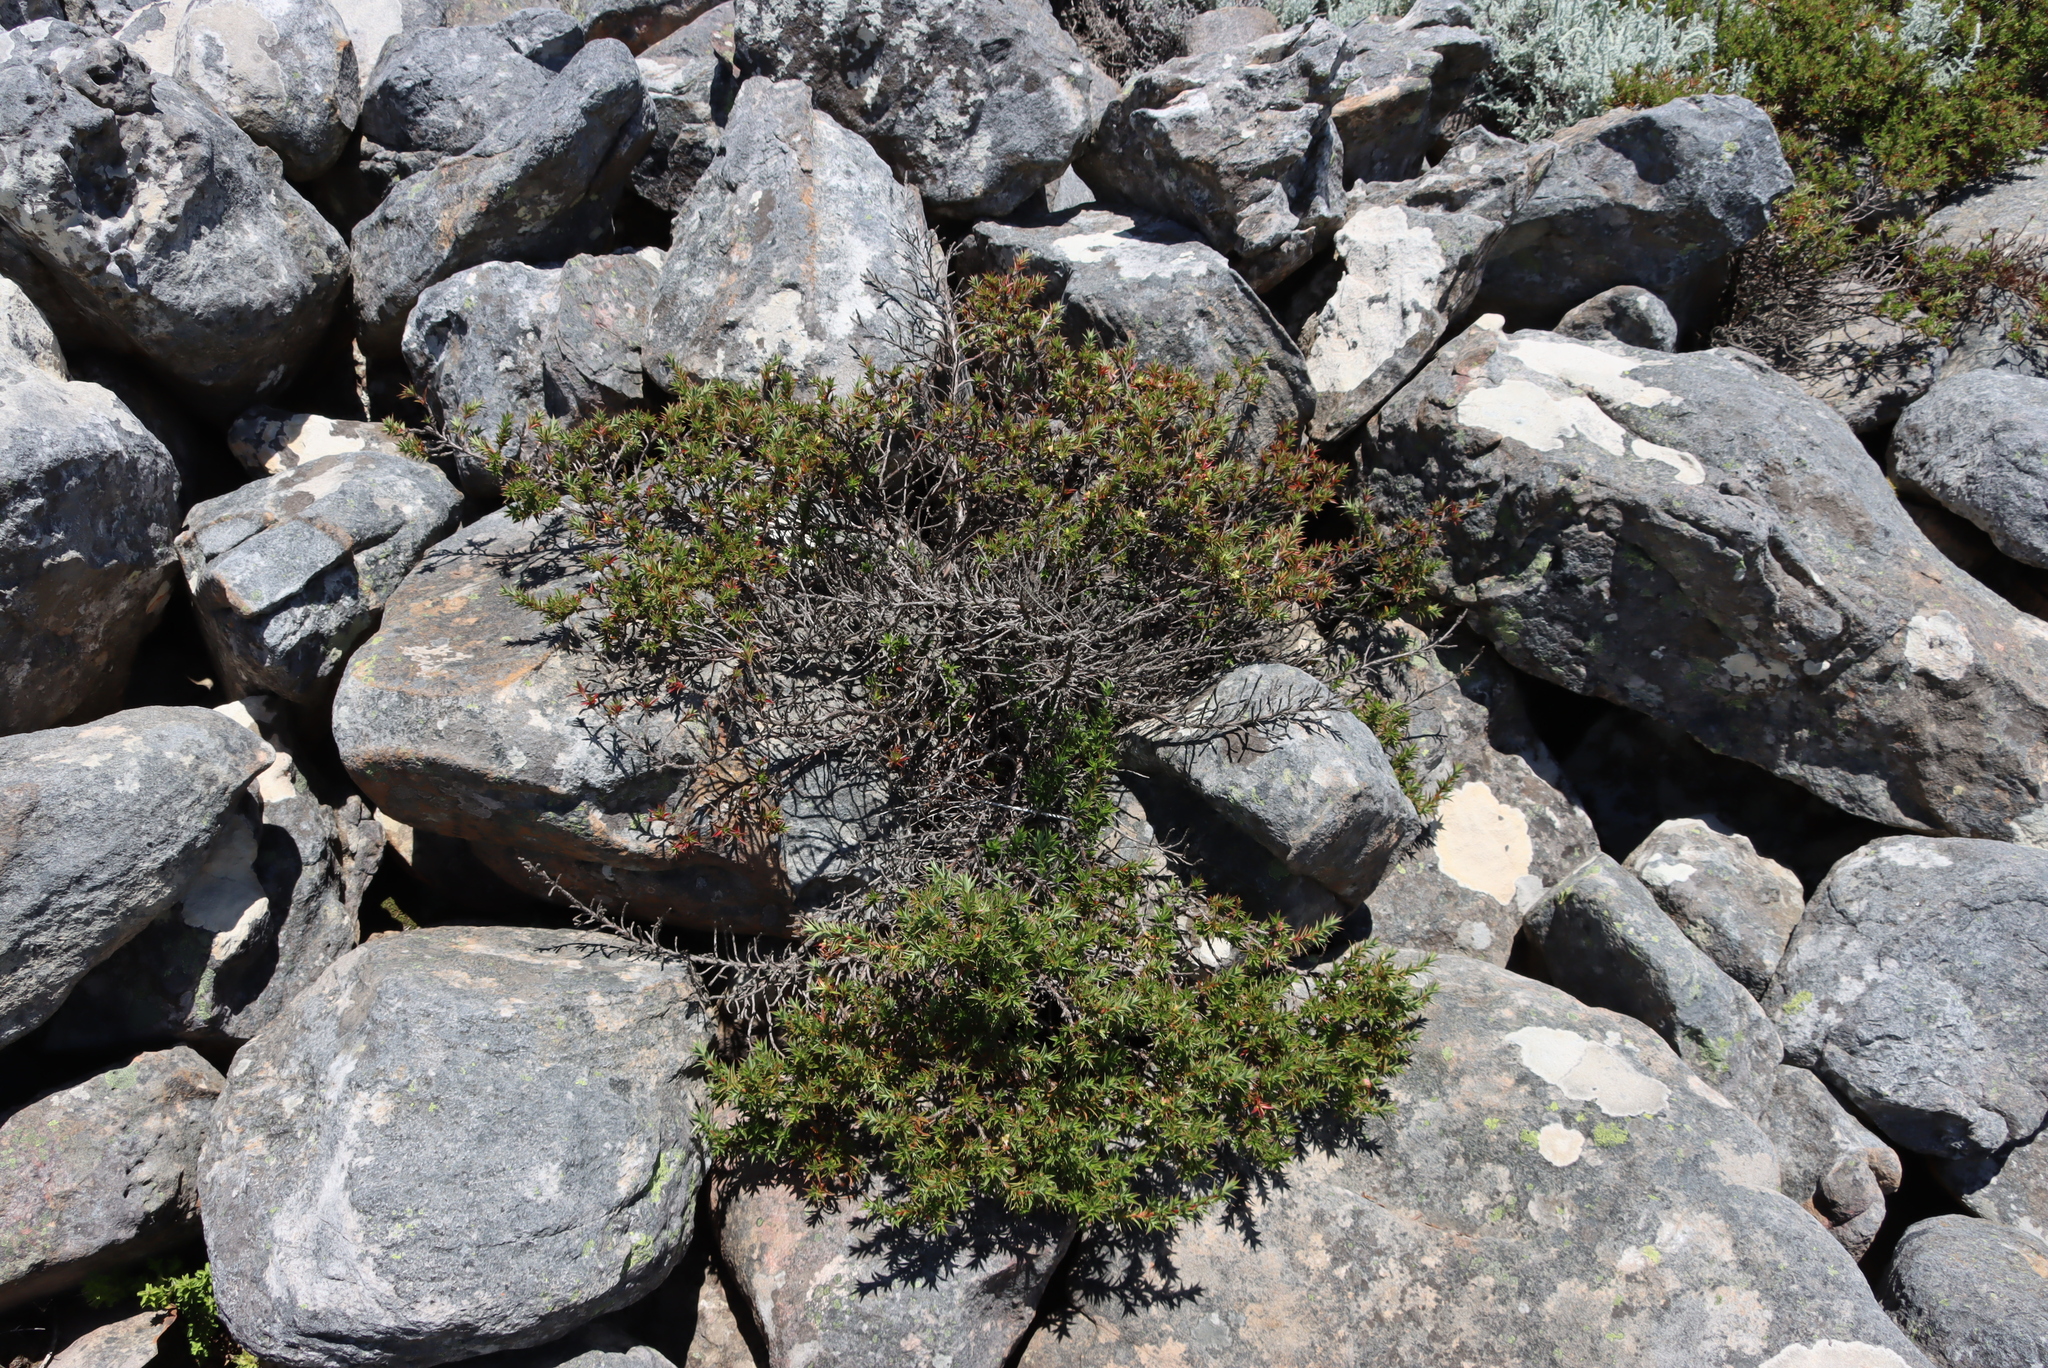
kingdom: Plantae
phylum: Tracheophyta
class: Magnoliopsida
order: Rosales
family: Rosaceae
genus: Cliffortia
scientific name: Cliffortia ruscifolia
